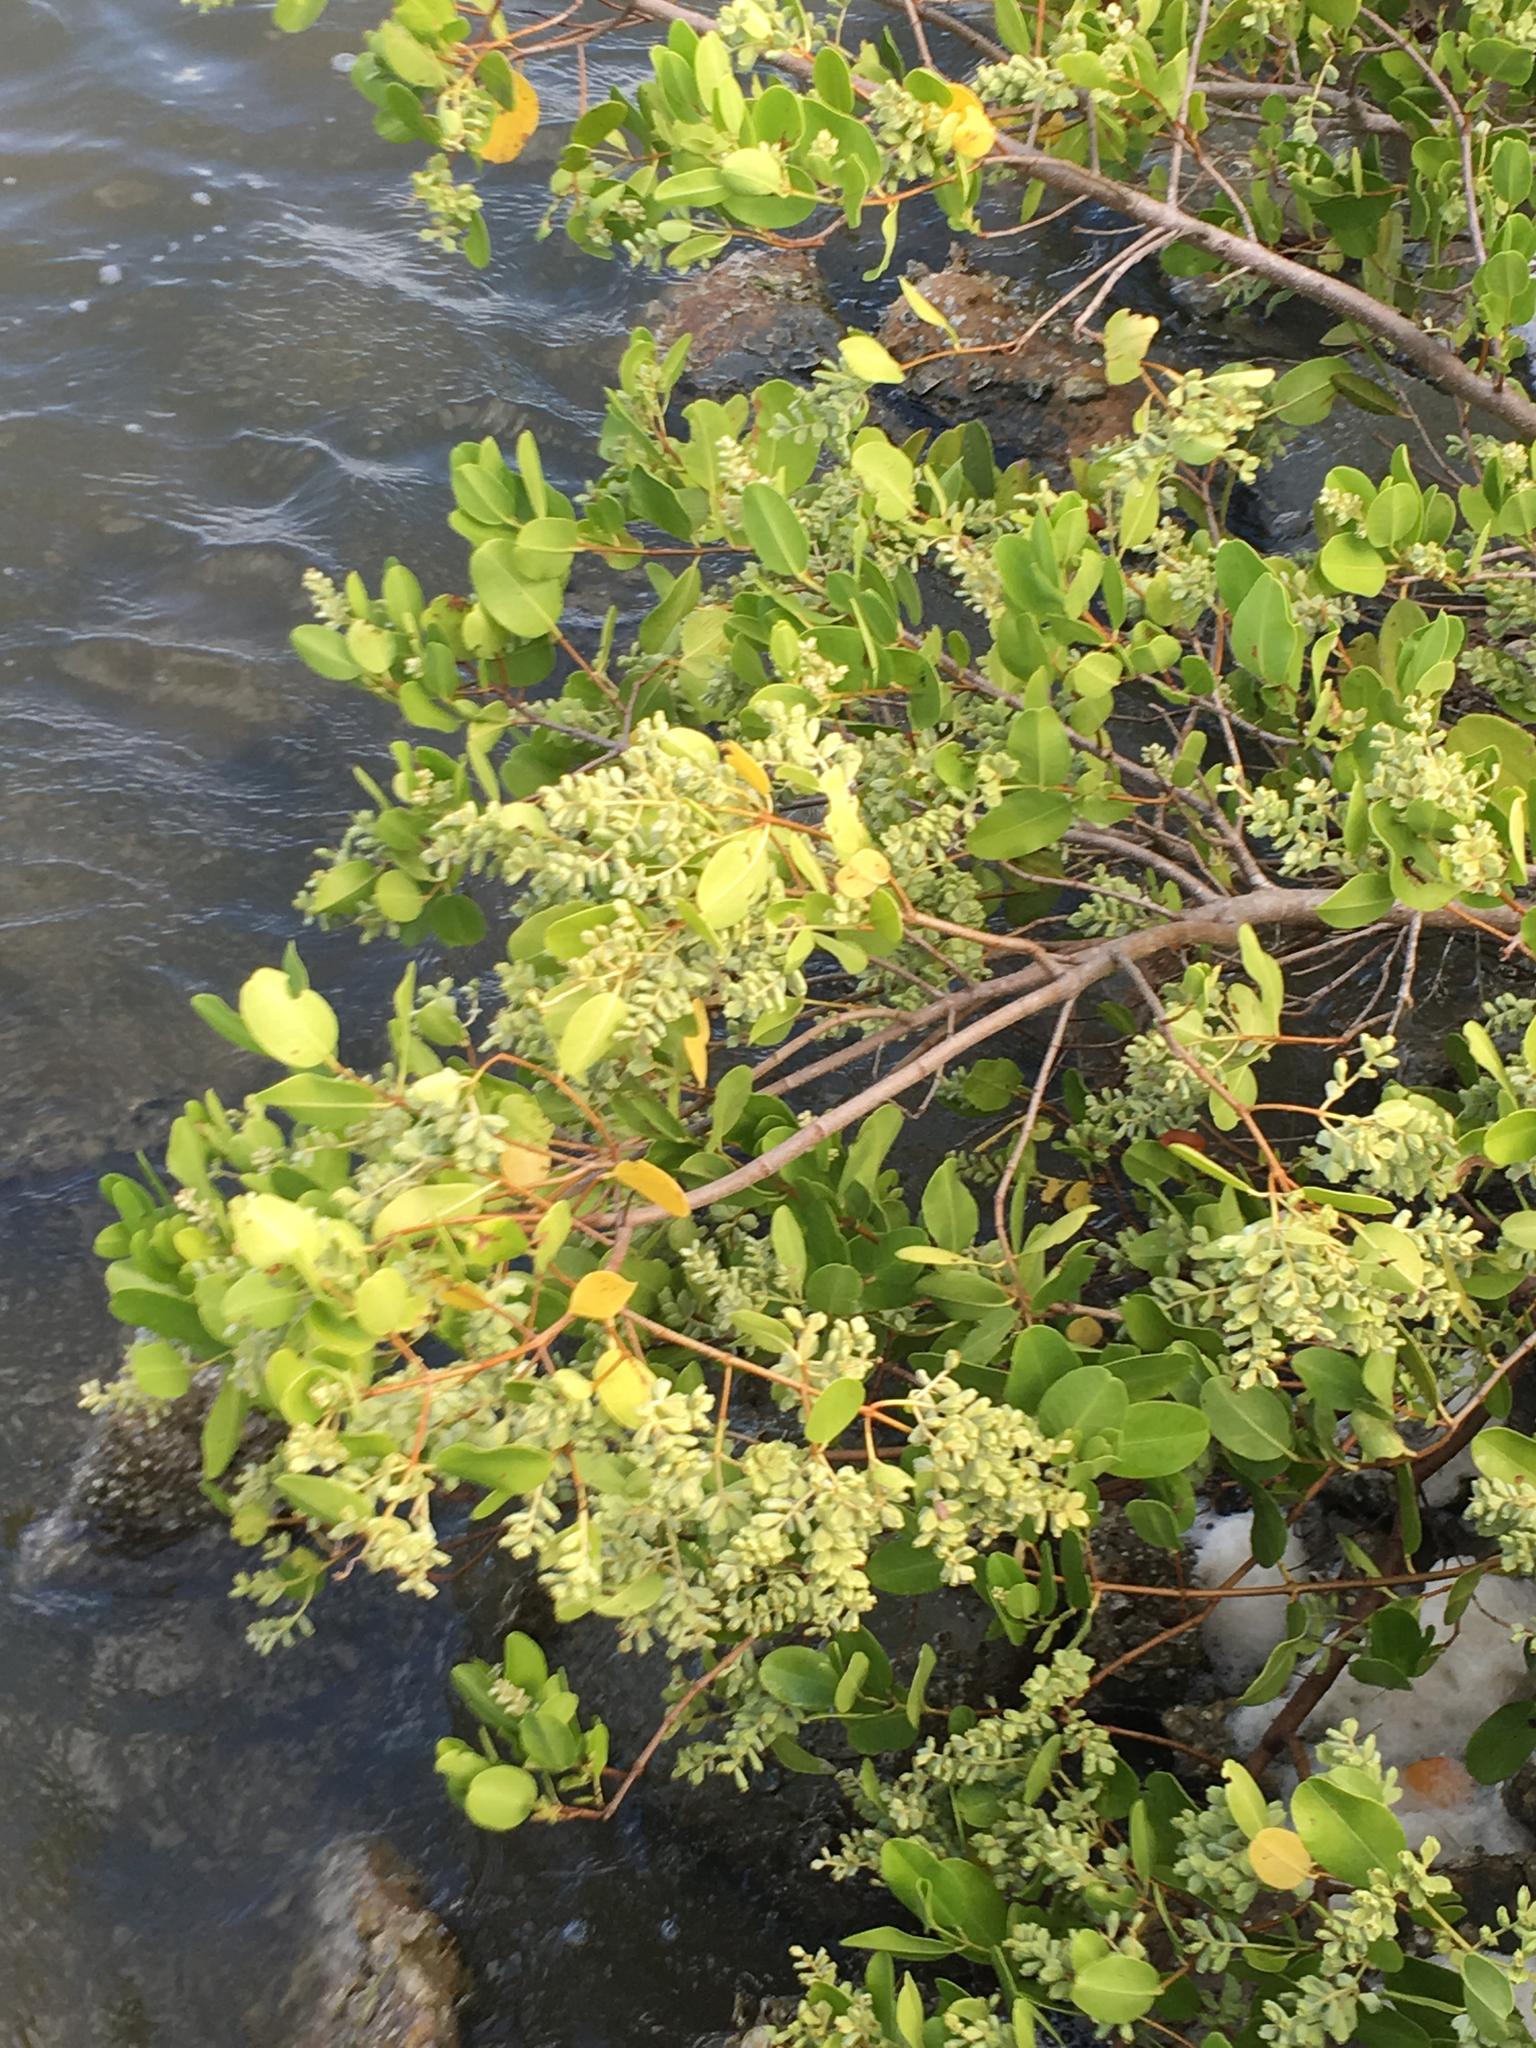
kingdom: Plantae
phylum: Tracheophyta
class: Magnoliopsida
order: Myrtales
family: Combretaceae
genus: Laguncularia
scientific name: Laguncularia racemosa
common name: White mangrove
